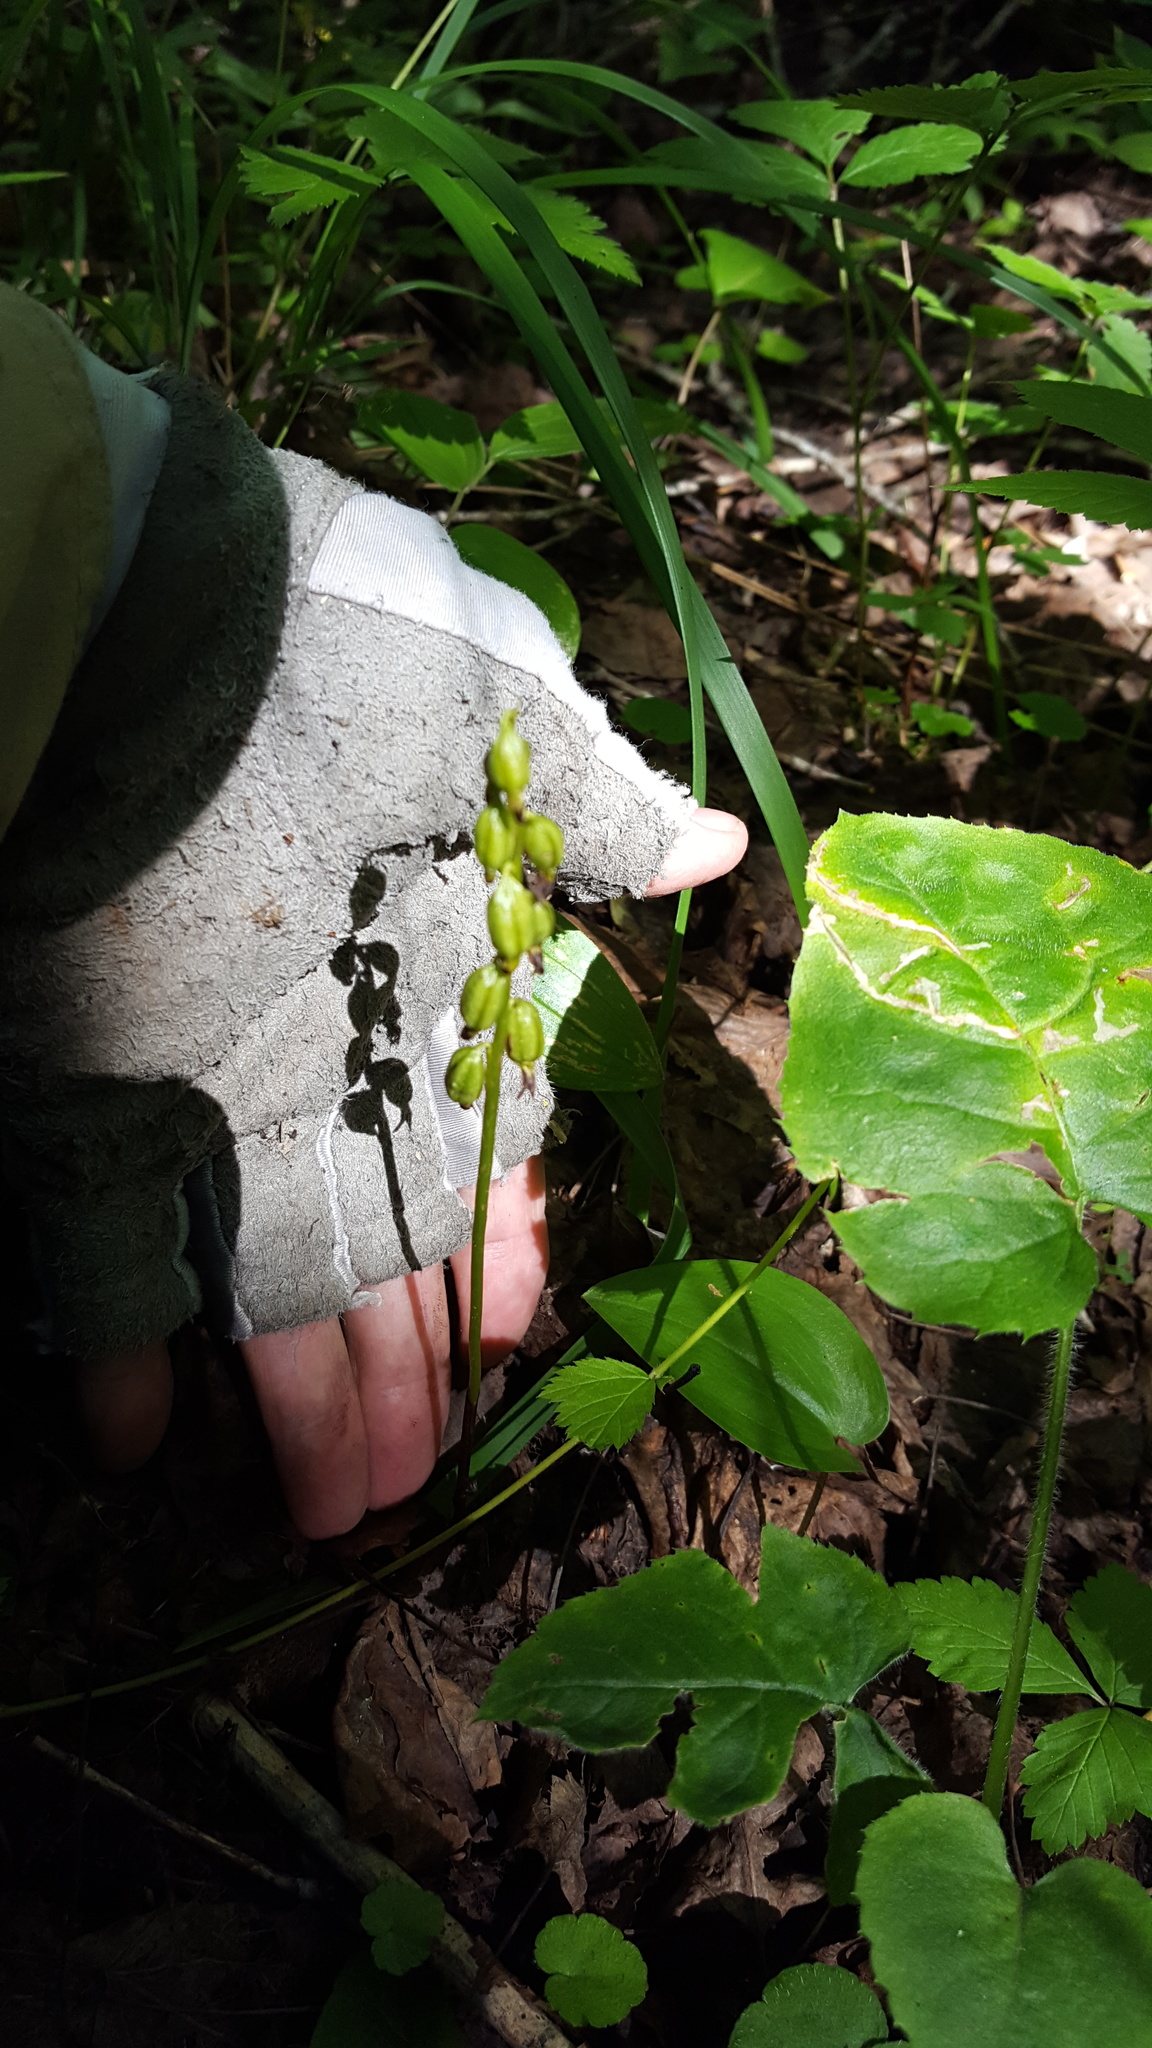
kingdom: Plantae
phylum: Tracheophyta
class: Liliopsida
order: Asparagales
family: Orchidaceae
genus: Corallorhiza
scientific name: Corallorhiza trifida
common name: Yellow coralroot
